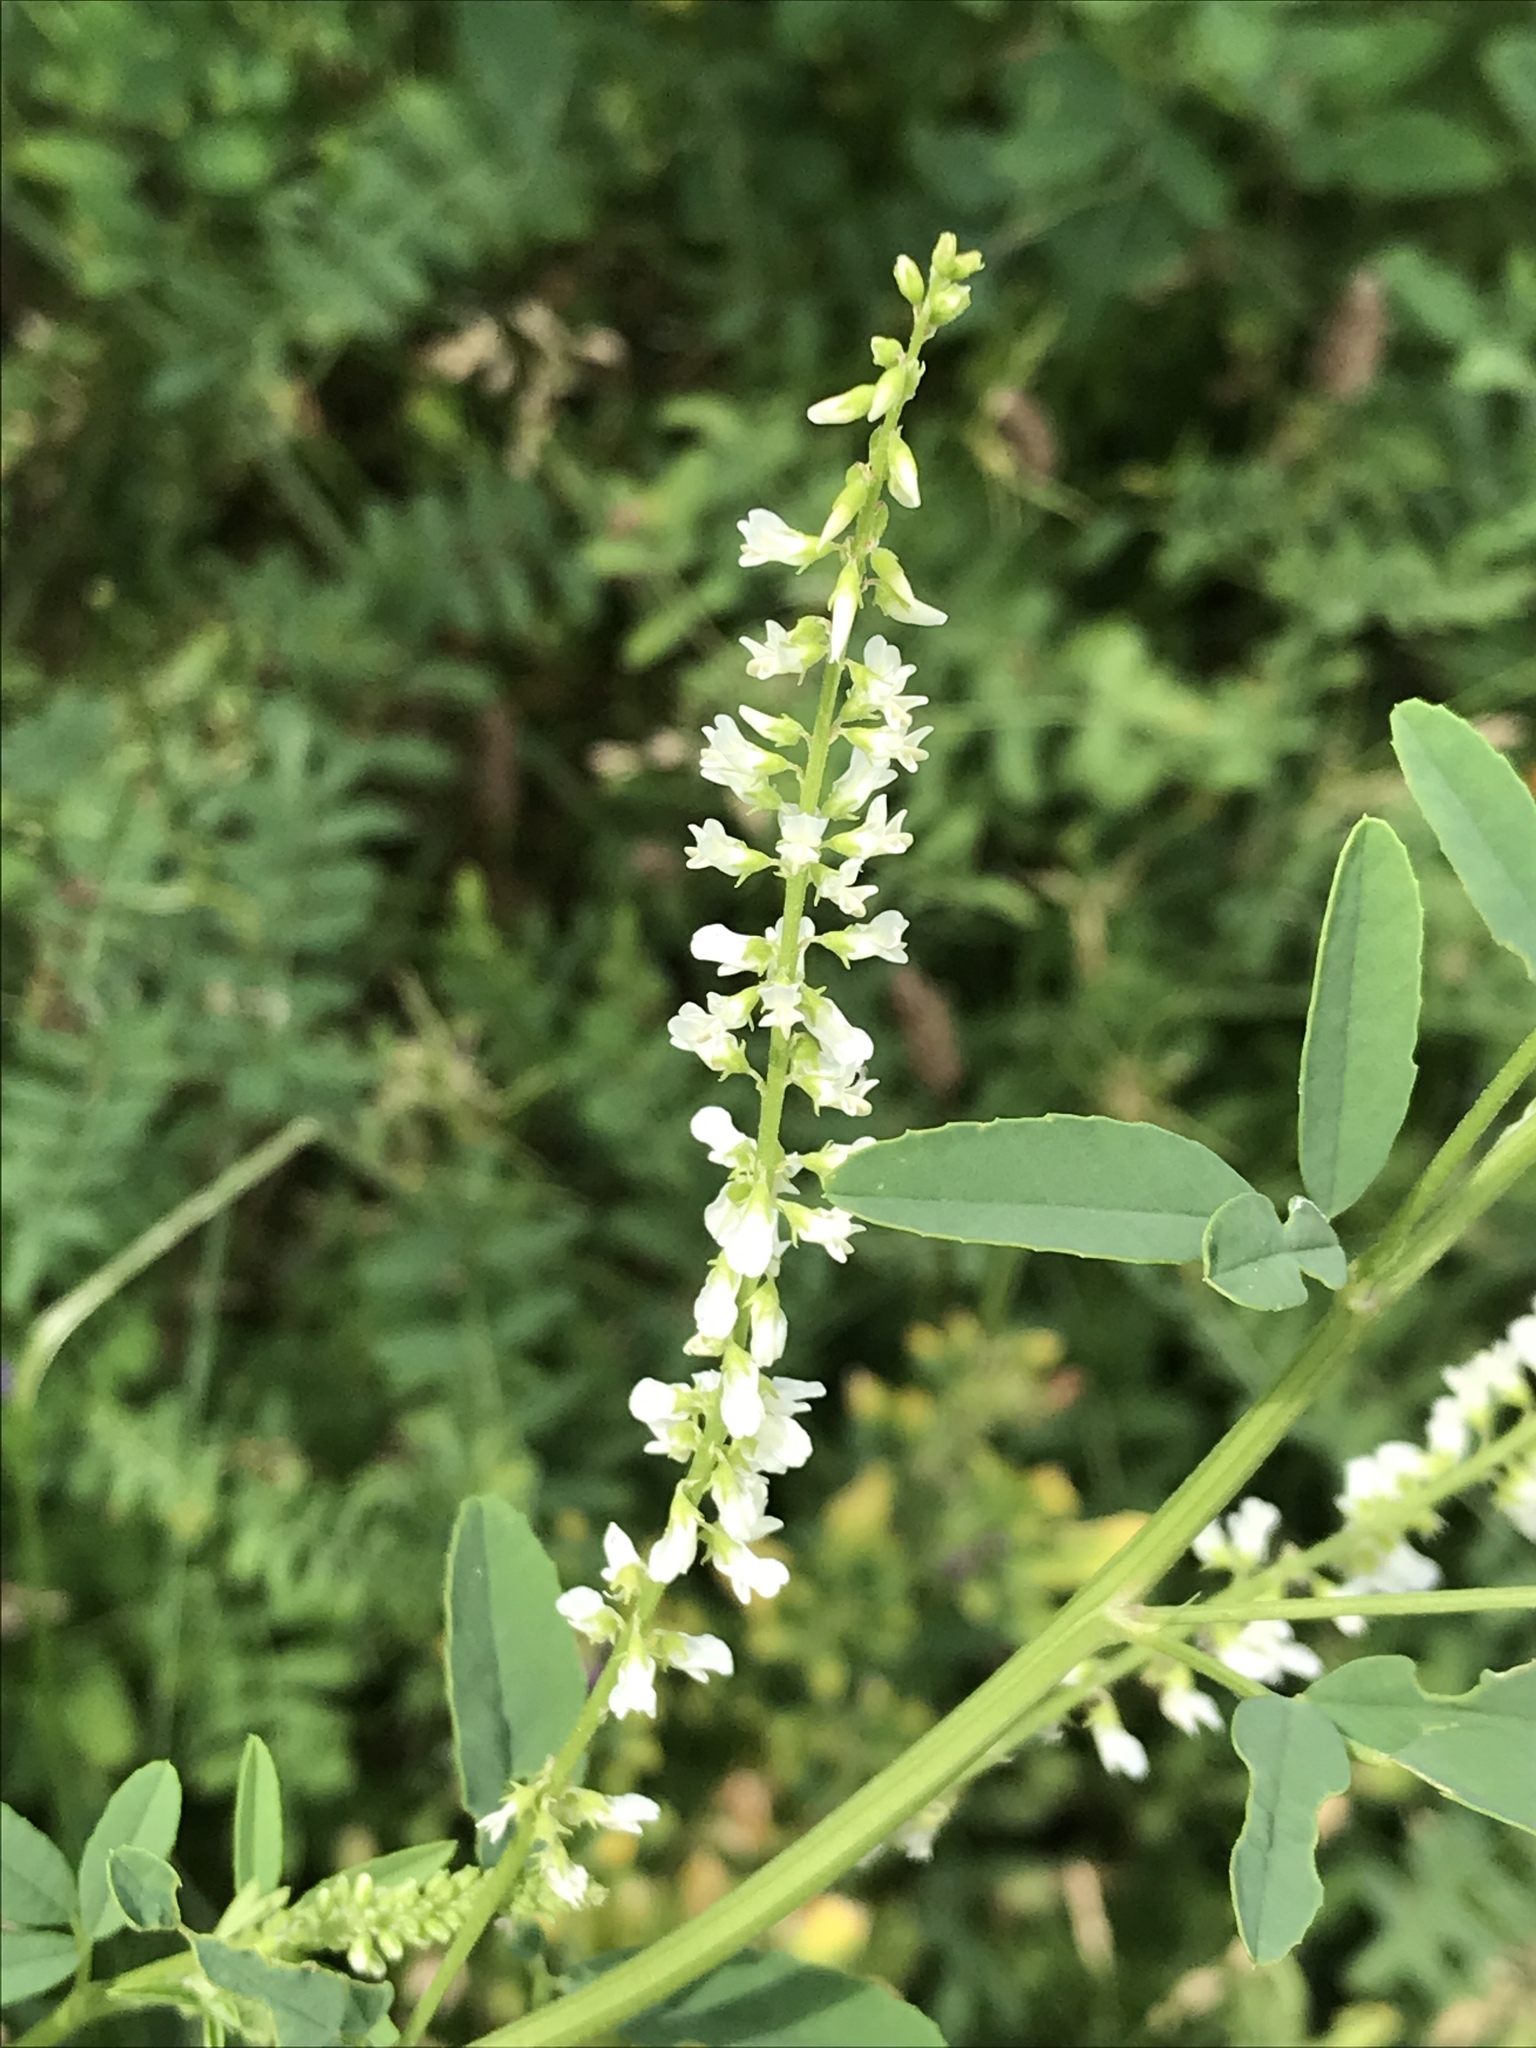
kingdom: Plantae
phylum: Tracheophyta
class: Magnoliopsida
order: Fabales
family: Fabaceae
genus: Melilotus
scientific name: Melilotus albus
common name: White melilot
